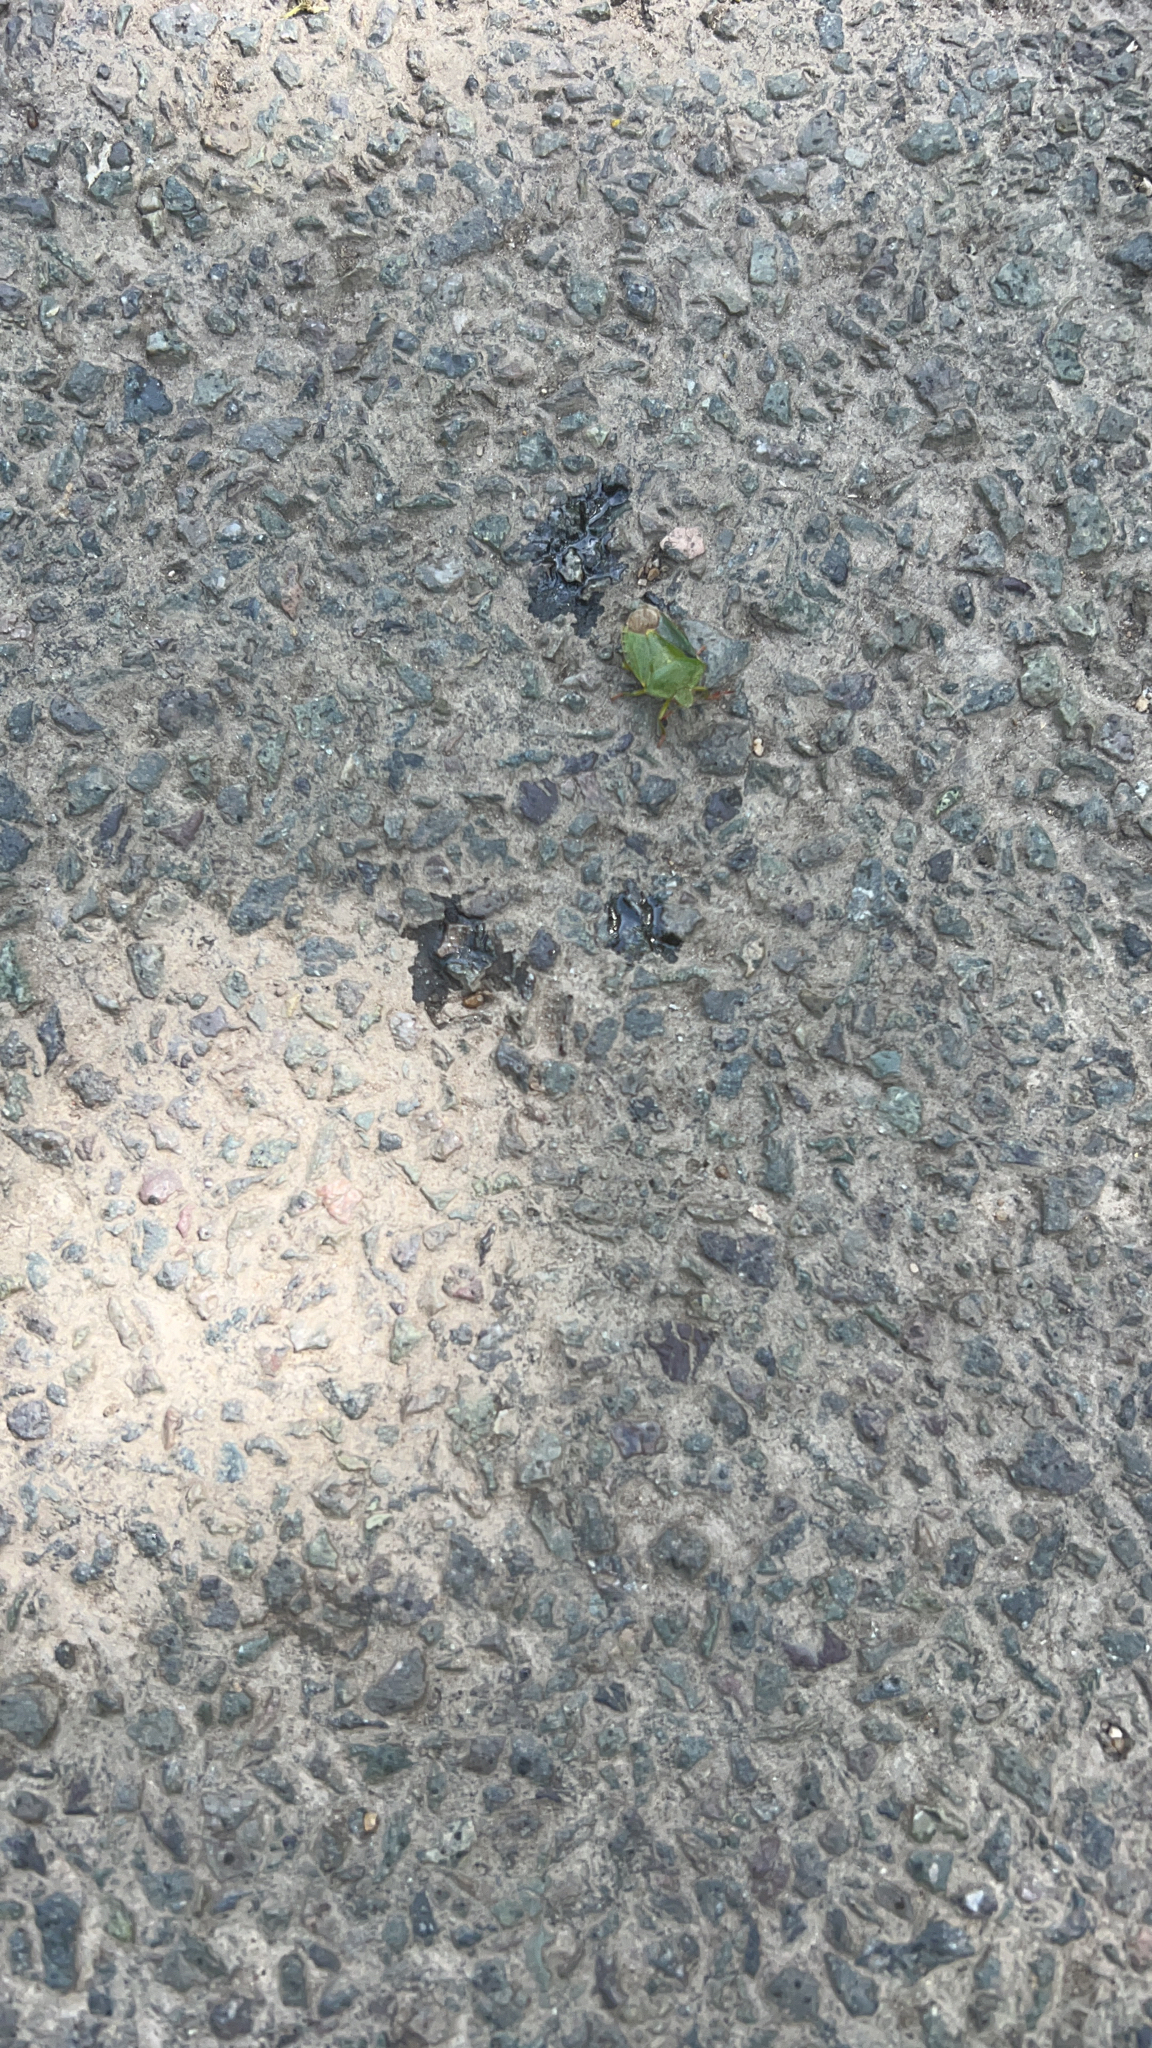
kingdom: Animalia
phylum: Arthropoda
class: Insecta
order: Hemiptera
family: Pentatomidae
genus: Palomena
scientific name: Palomena prasina
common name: Green shieldbug
